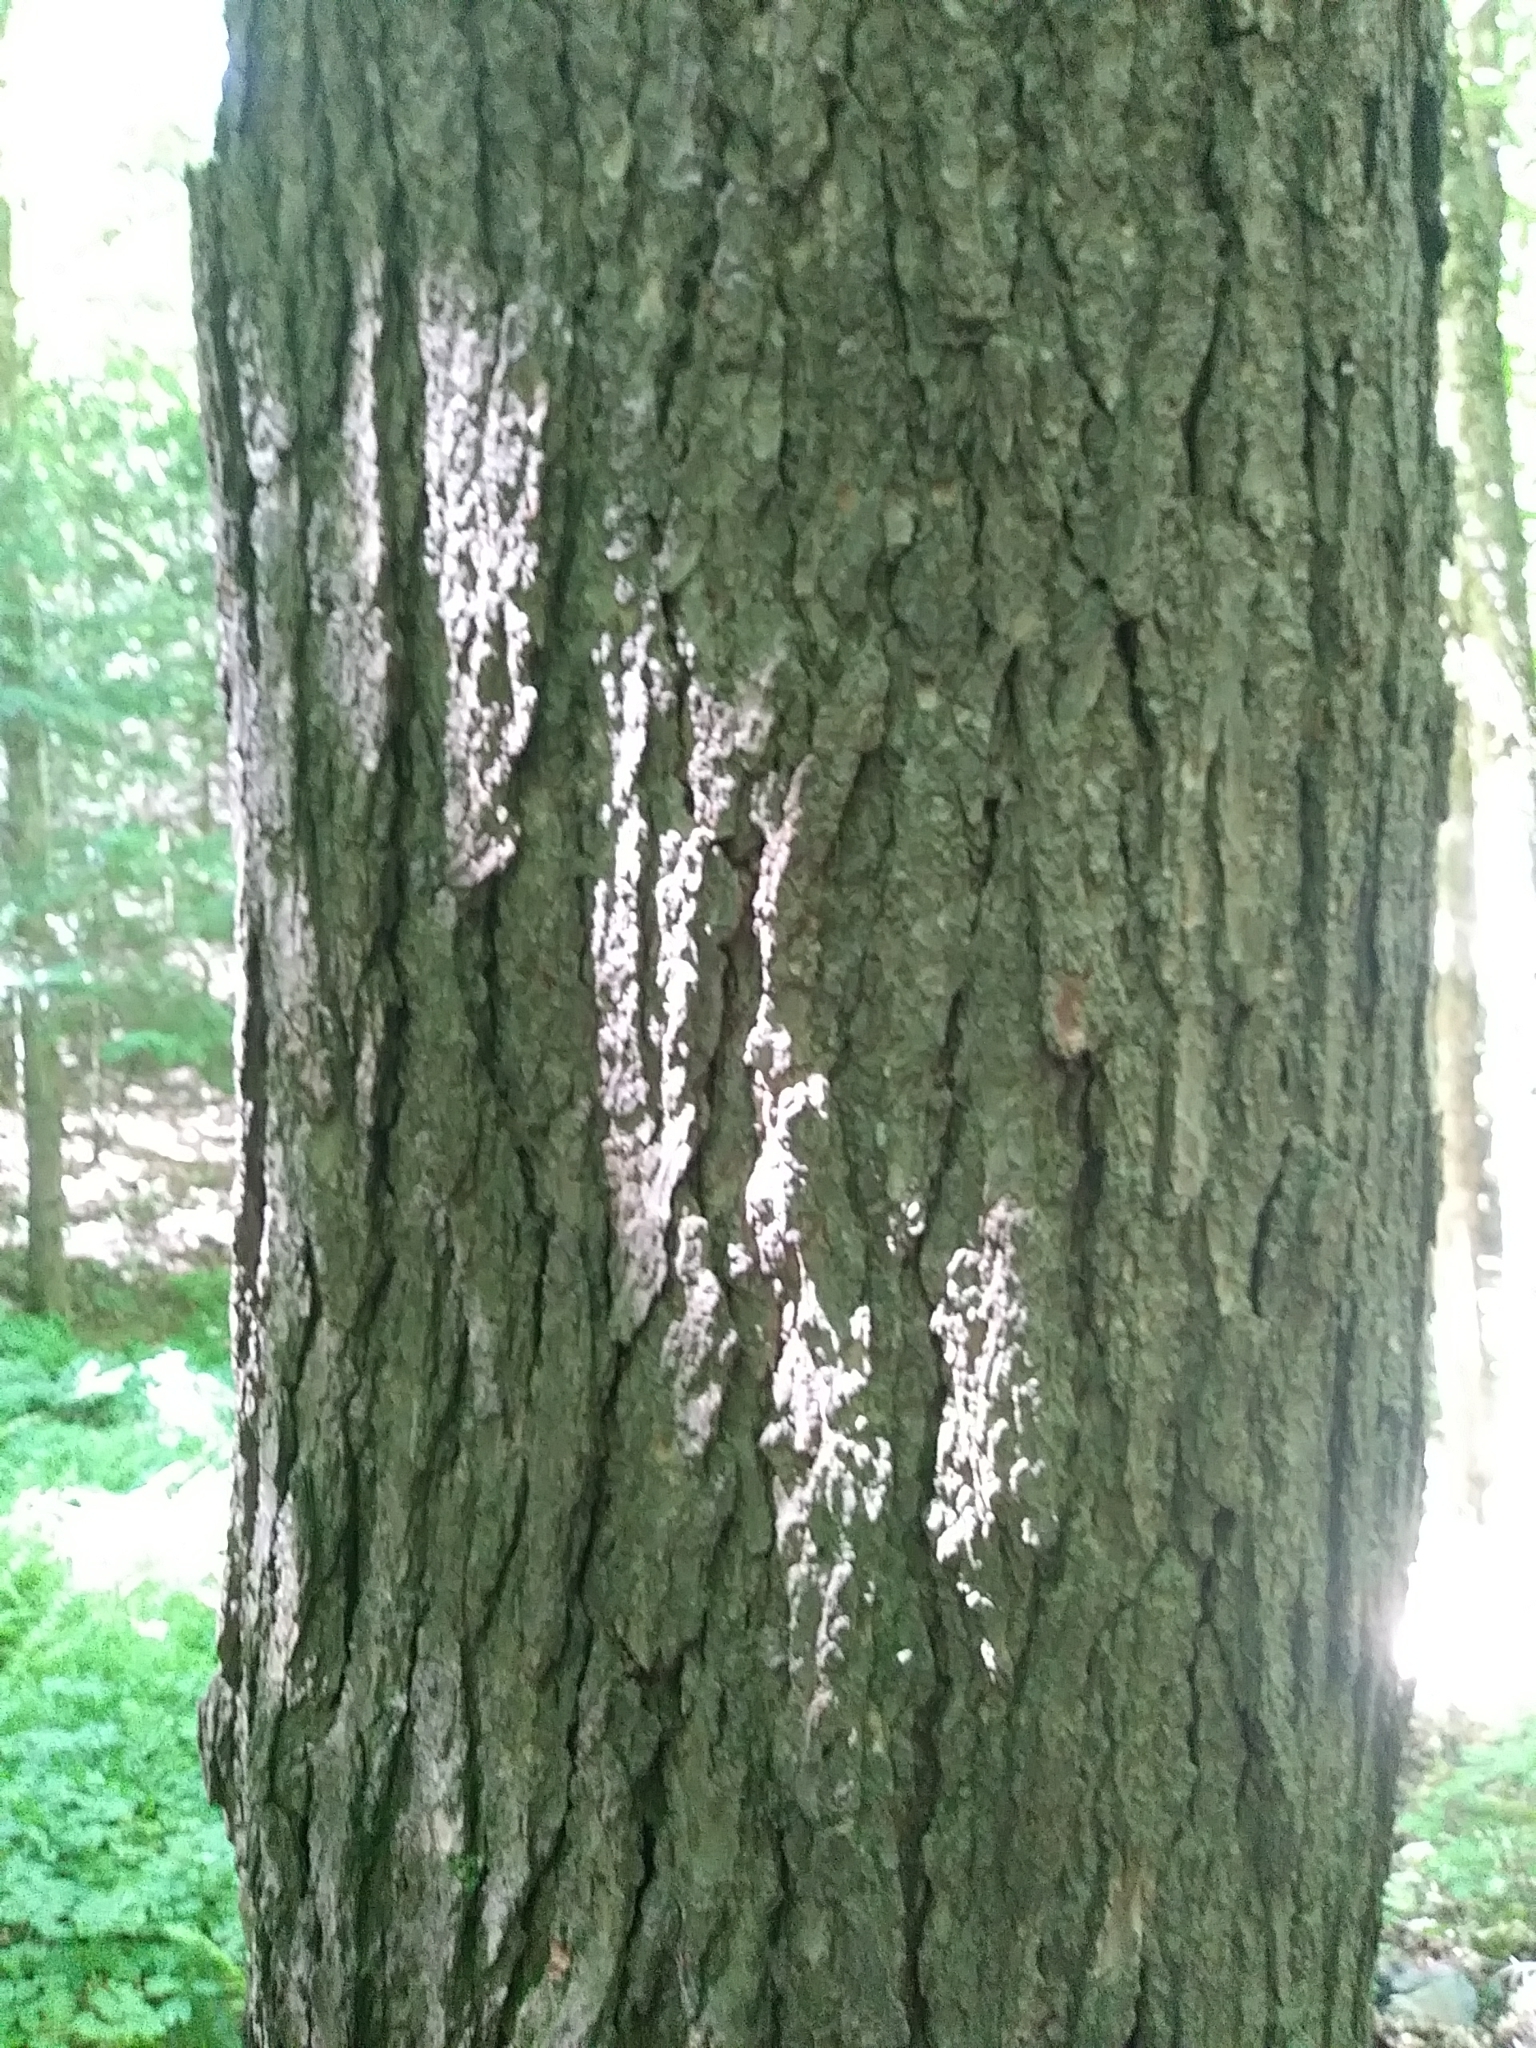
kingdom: Plantae
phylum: Tracheophyta
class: Pinopsida
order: Pinales
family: Pinaceae
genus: Tsuga
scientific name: Tsuga canadensis
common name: Eastern hemlock
